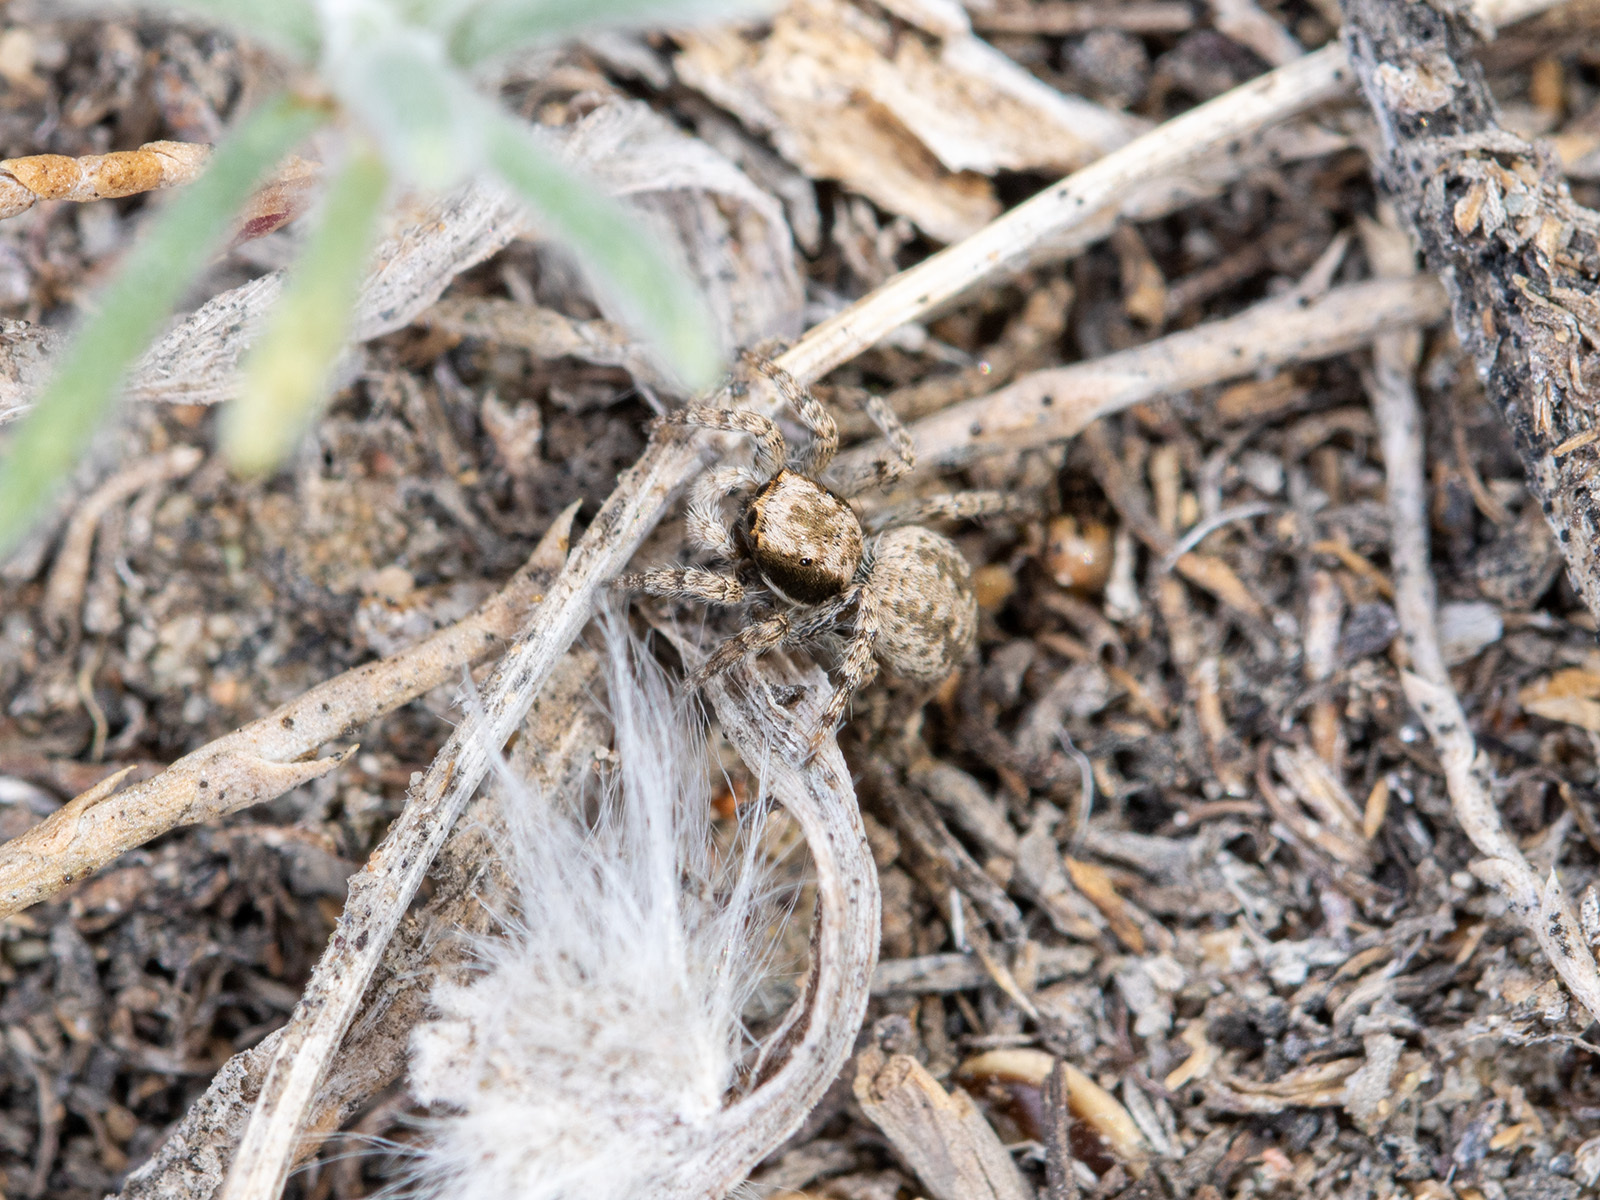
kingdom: Animalia
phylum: Arthropoda
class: Arachnida
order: Araneae
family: Salticidae
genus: Aelurillus
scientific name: Aelurillus andreevae
